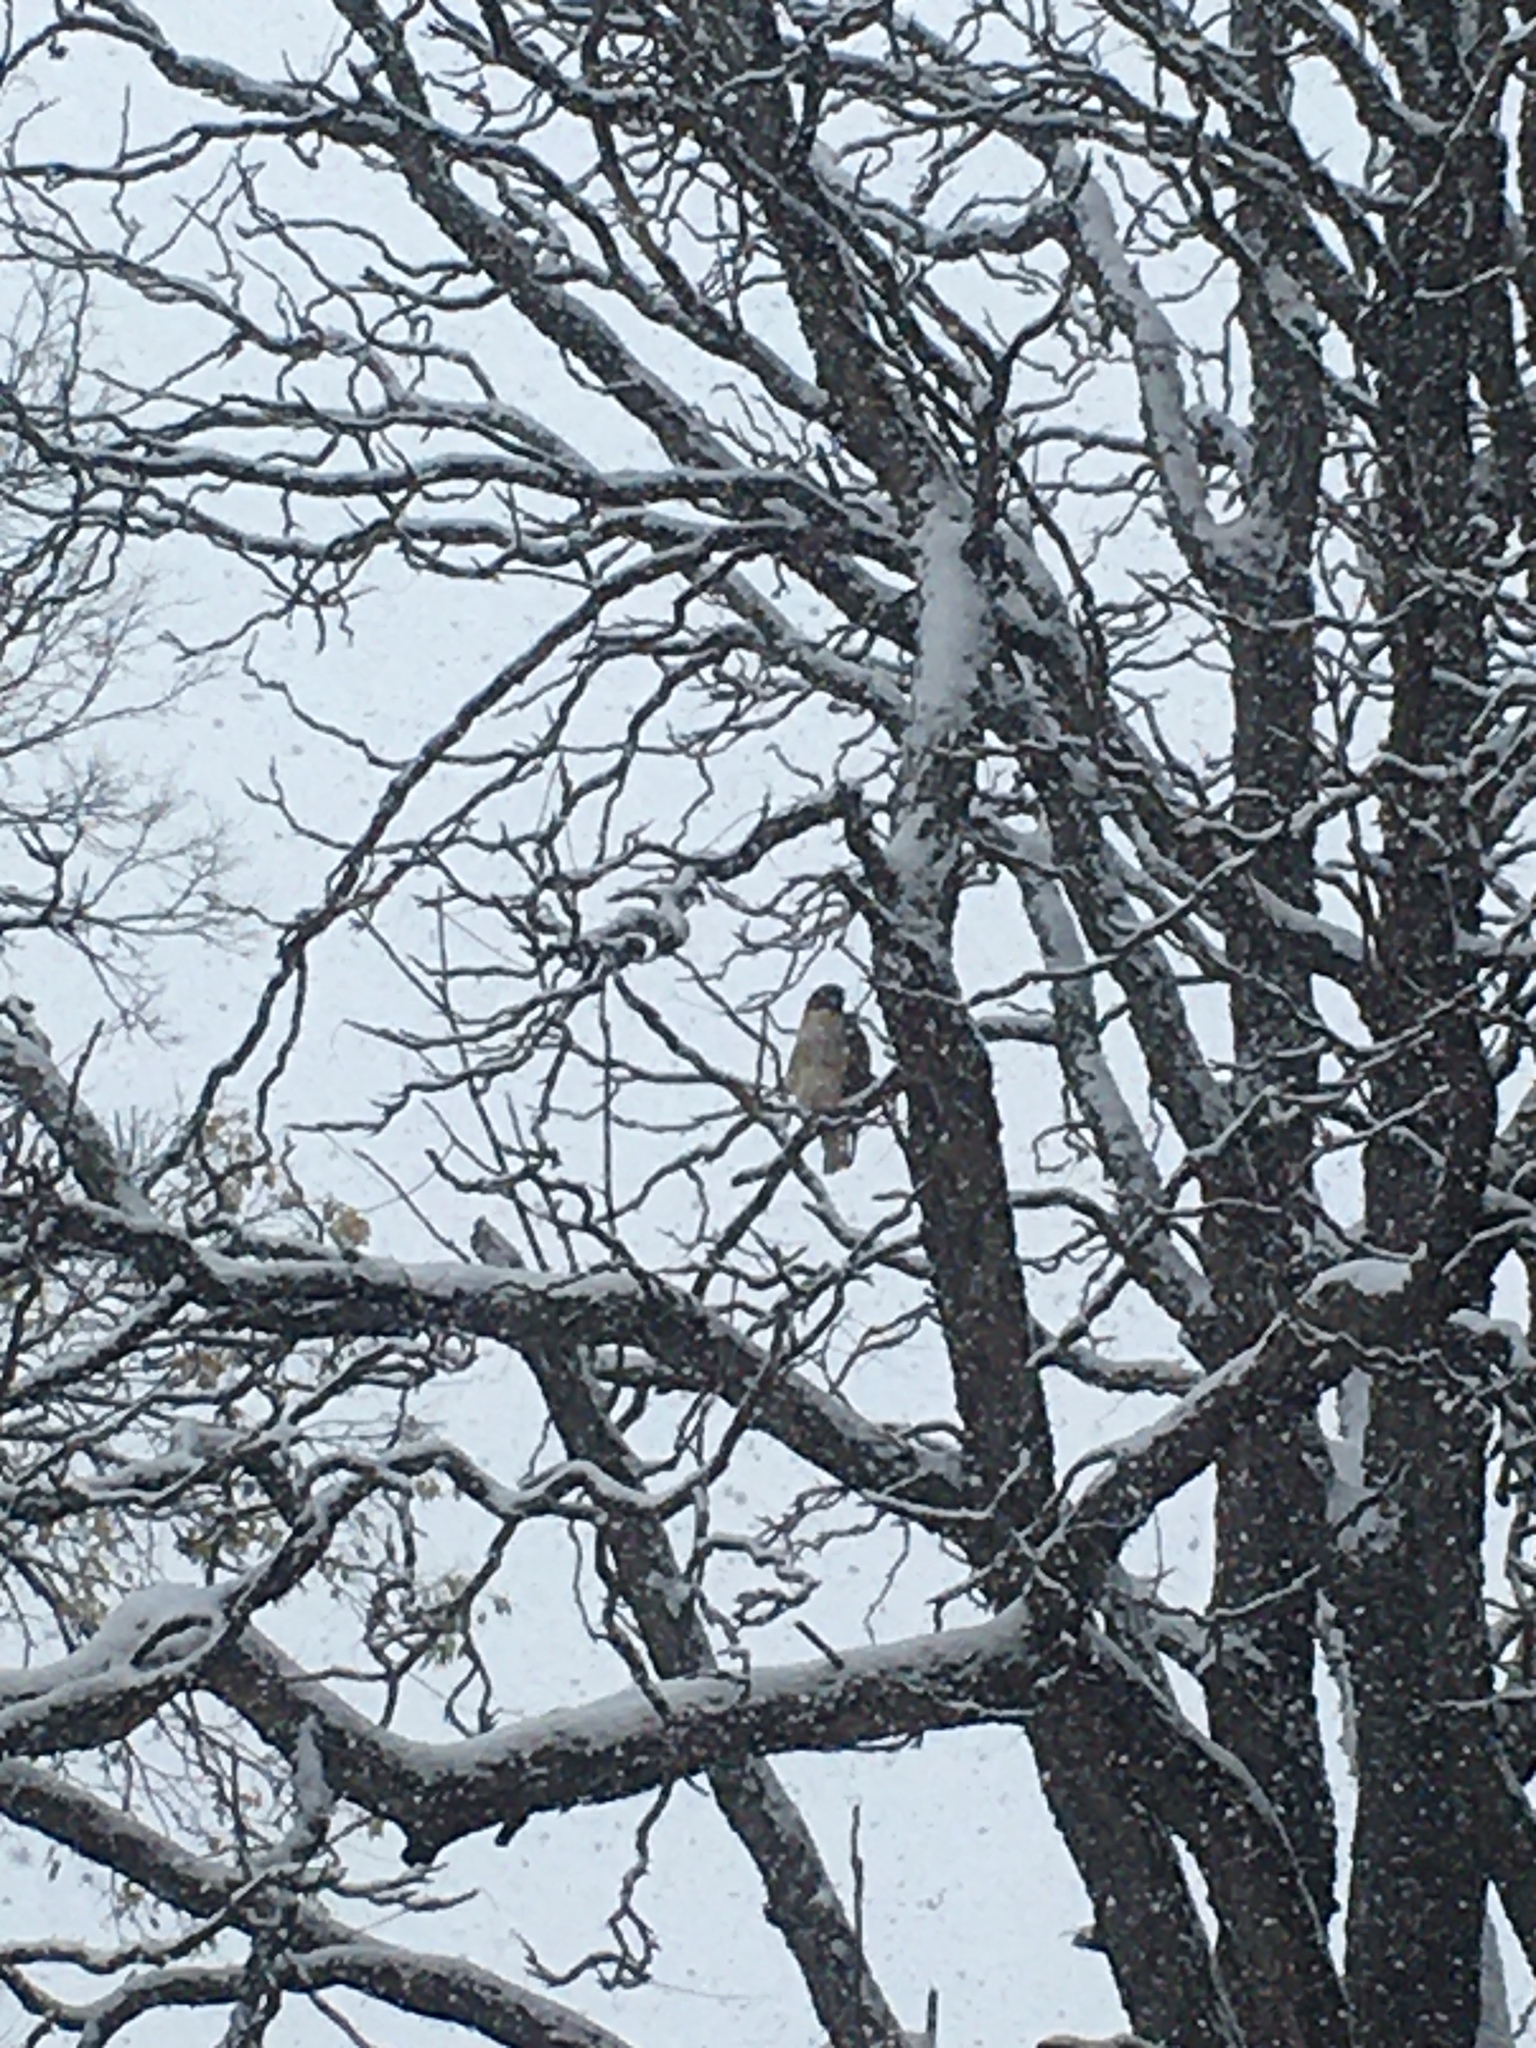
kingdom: Animalia
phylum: Chordata
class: Aves
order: Accipitriformes
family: Accipitridae
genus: Buteo
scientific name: Buteo jamaicensis
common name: Red-tailed hawk
